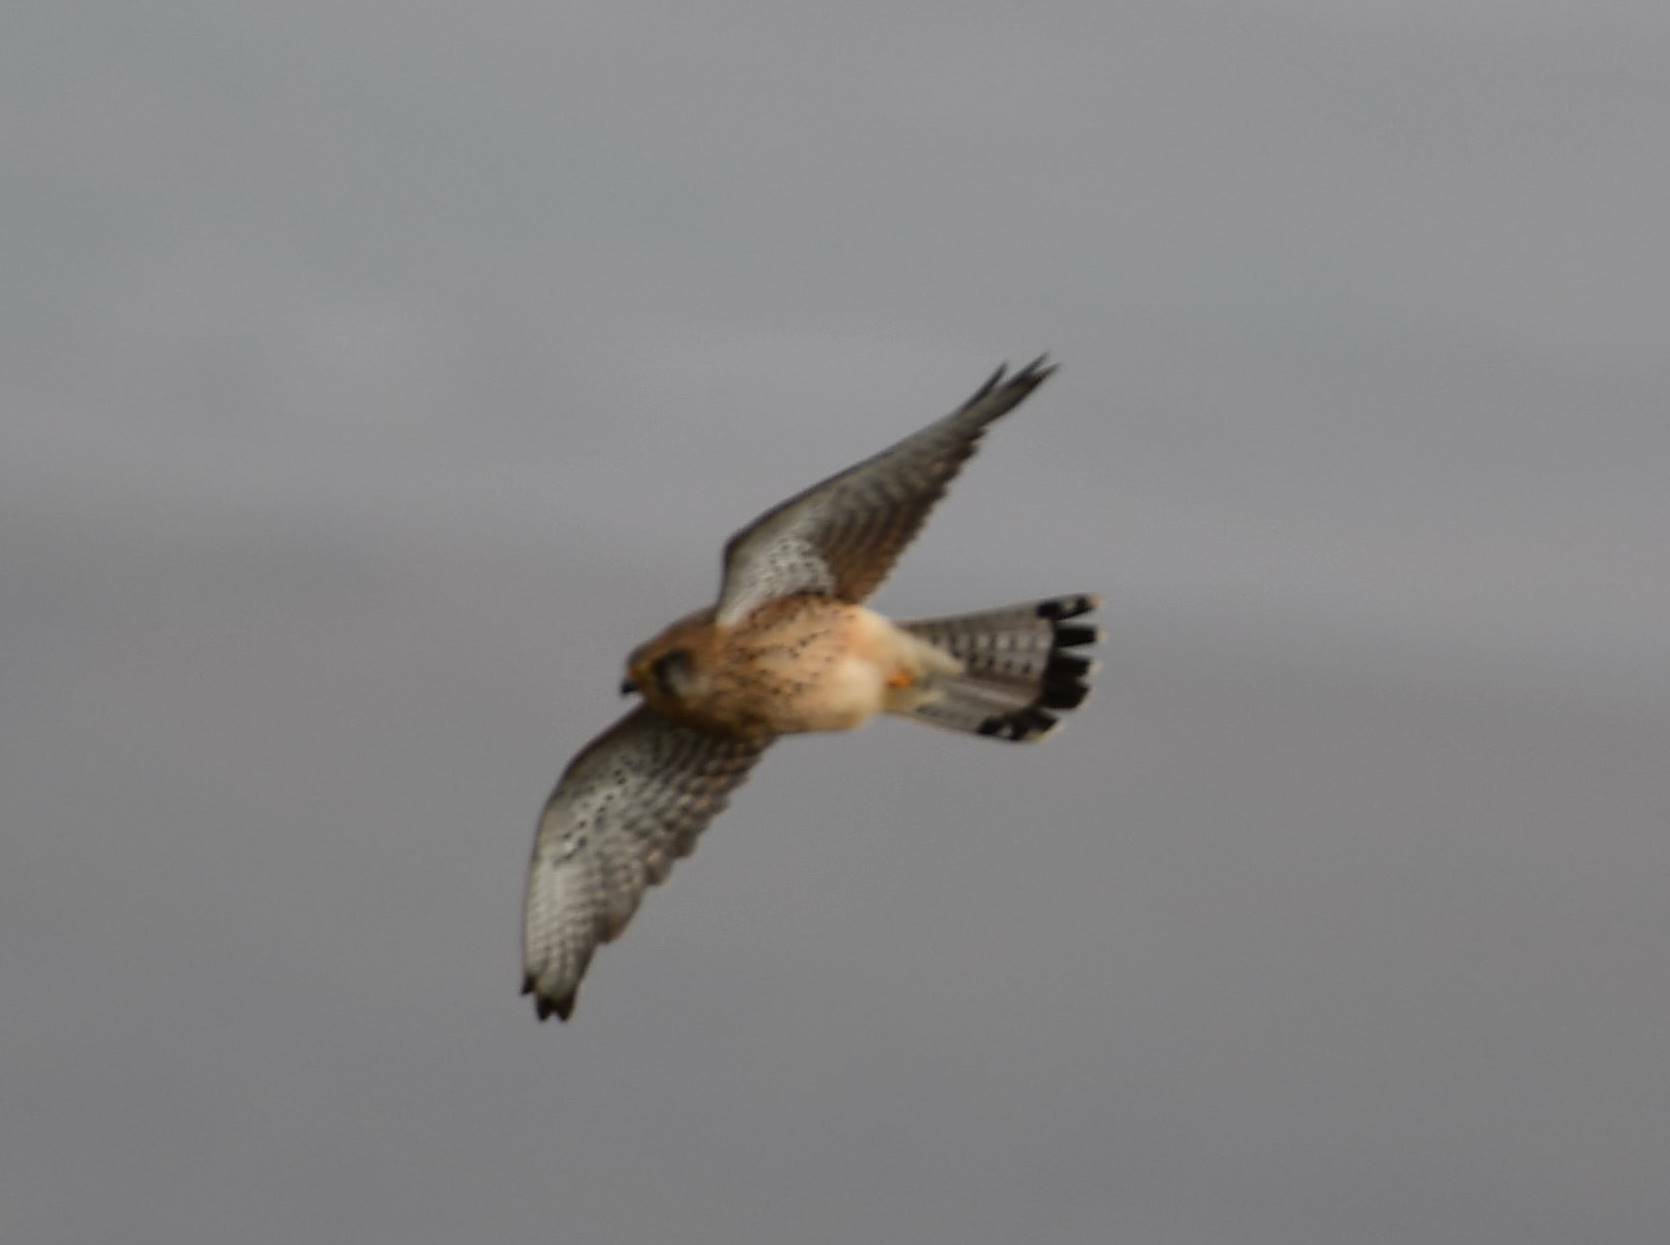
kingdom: Animalia
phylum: Chordata
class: Aves
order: Falconiformes
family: Falconidae
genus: Falco
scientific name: Falco tinnunculus
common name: Common kestrel
